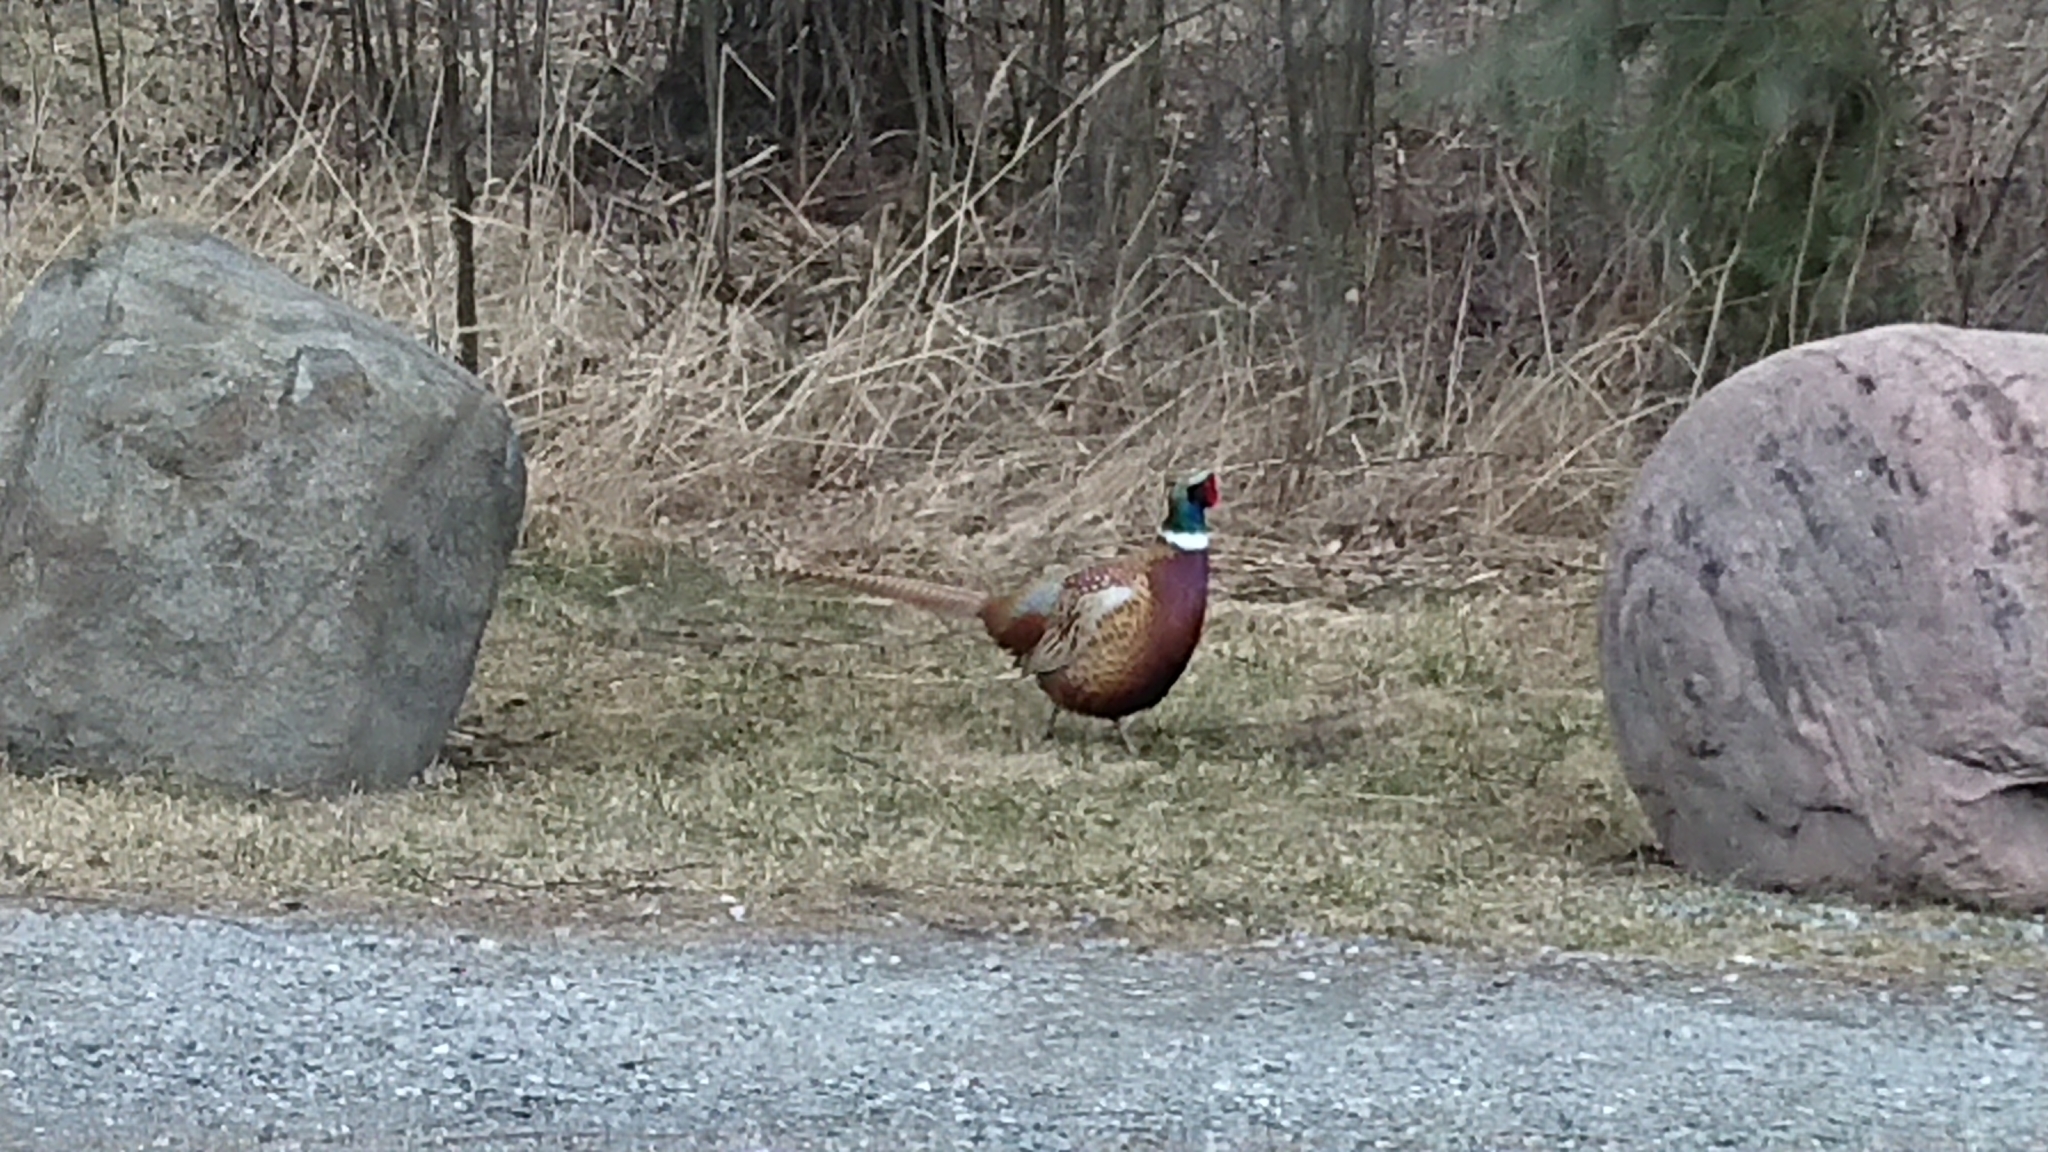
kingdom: Animalia
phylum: Chordata
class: Aves
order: Galliformes
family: Phasianidae
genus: Phasianus
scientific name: Phasianus colchicus
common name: Common pheasant
